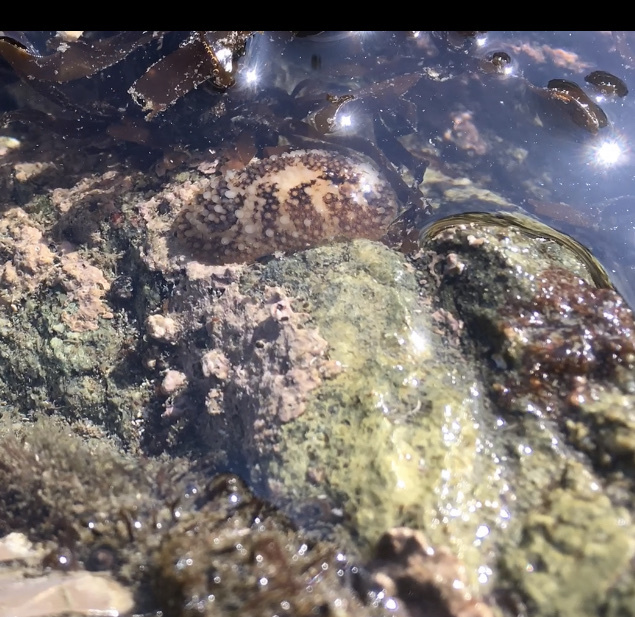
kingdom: Animalia
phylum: Mollusca
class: Gastropoda
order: Nudibranchia
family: Onchidorididae
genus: Onchidoris
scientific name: Onchidoris bilamellata
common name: Barnacle-eating onchidoris
